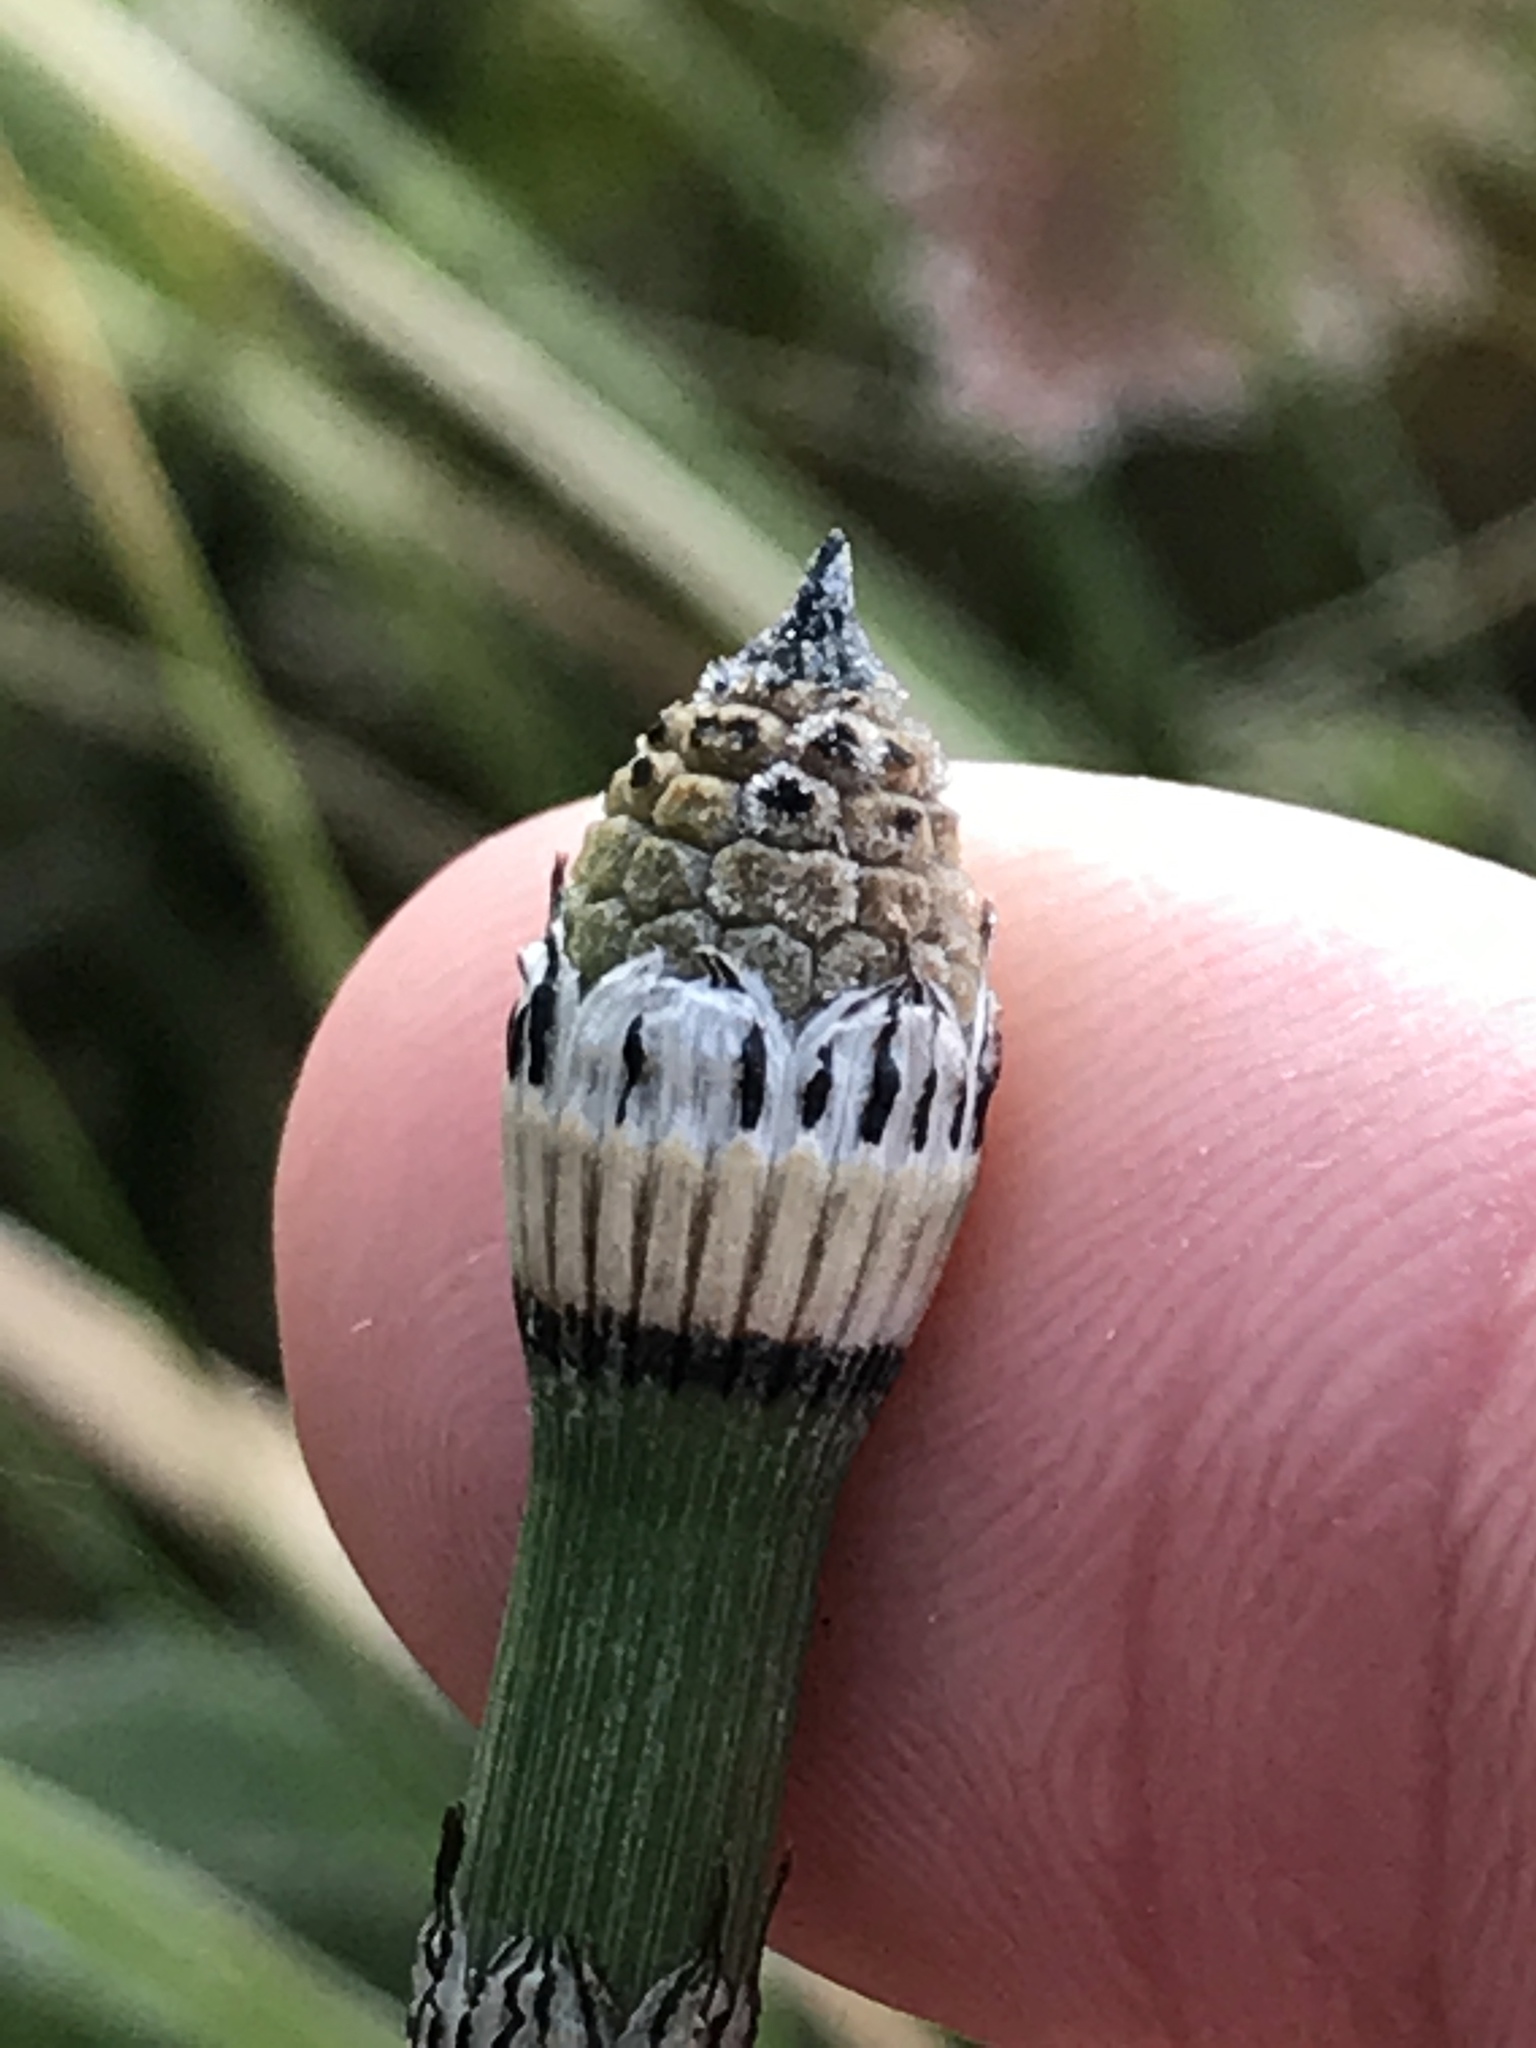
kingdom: Plantae
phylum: Tracheophyta
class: Polypodiopsida
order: Equisetales
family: Equisetaceae
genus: Equisetum
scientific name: Equisetum hyemale
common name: Rough horsetail
